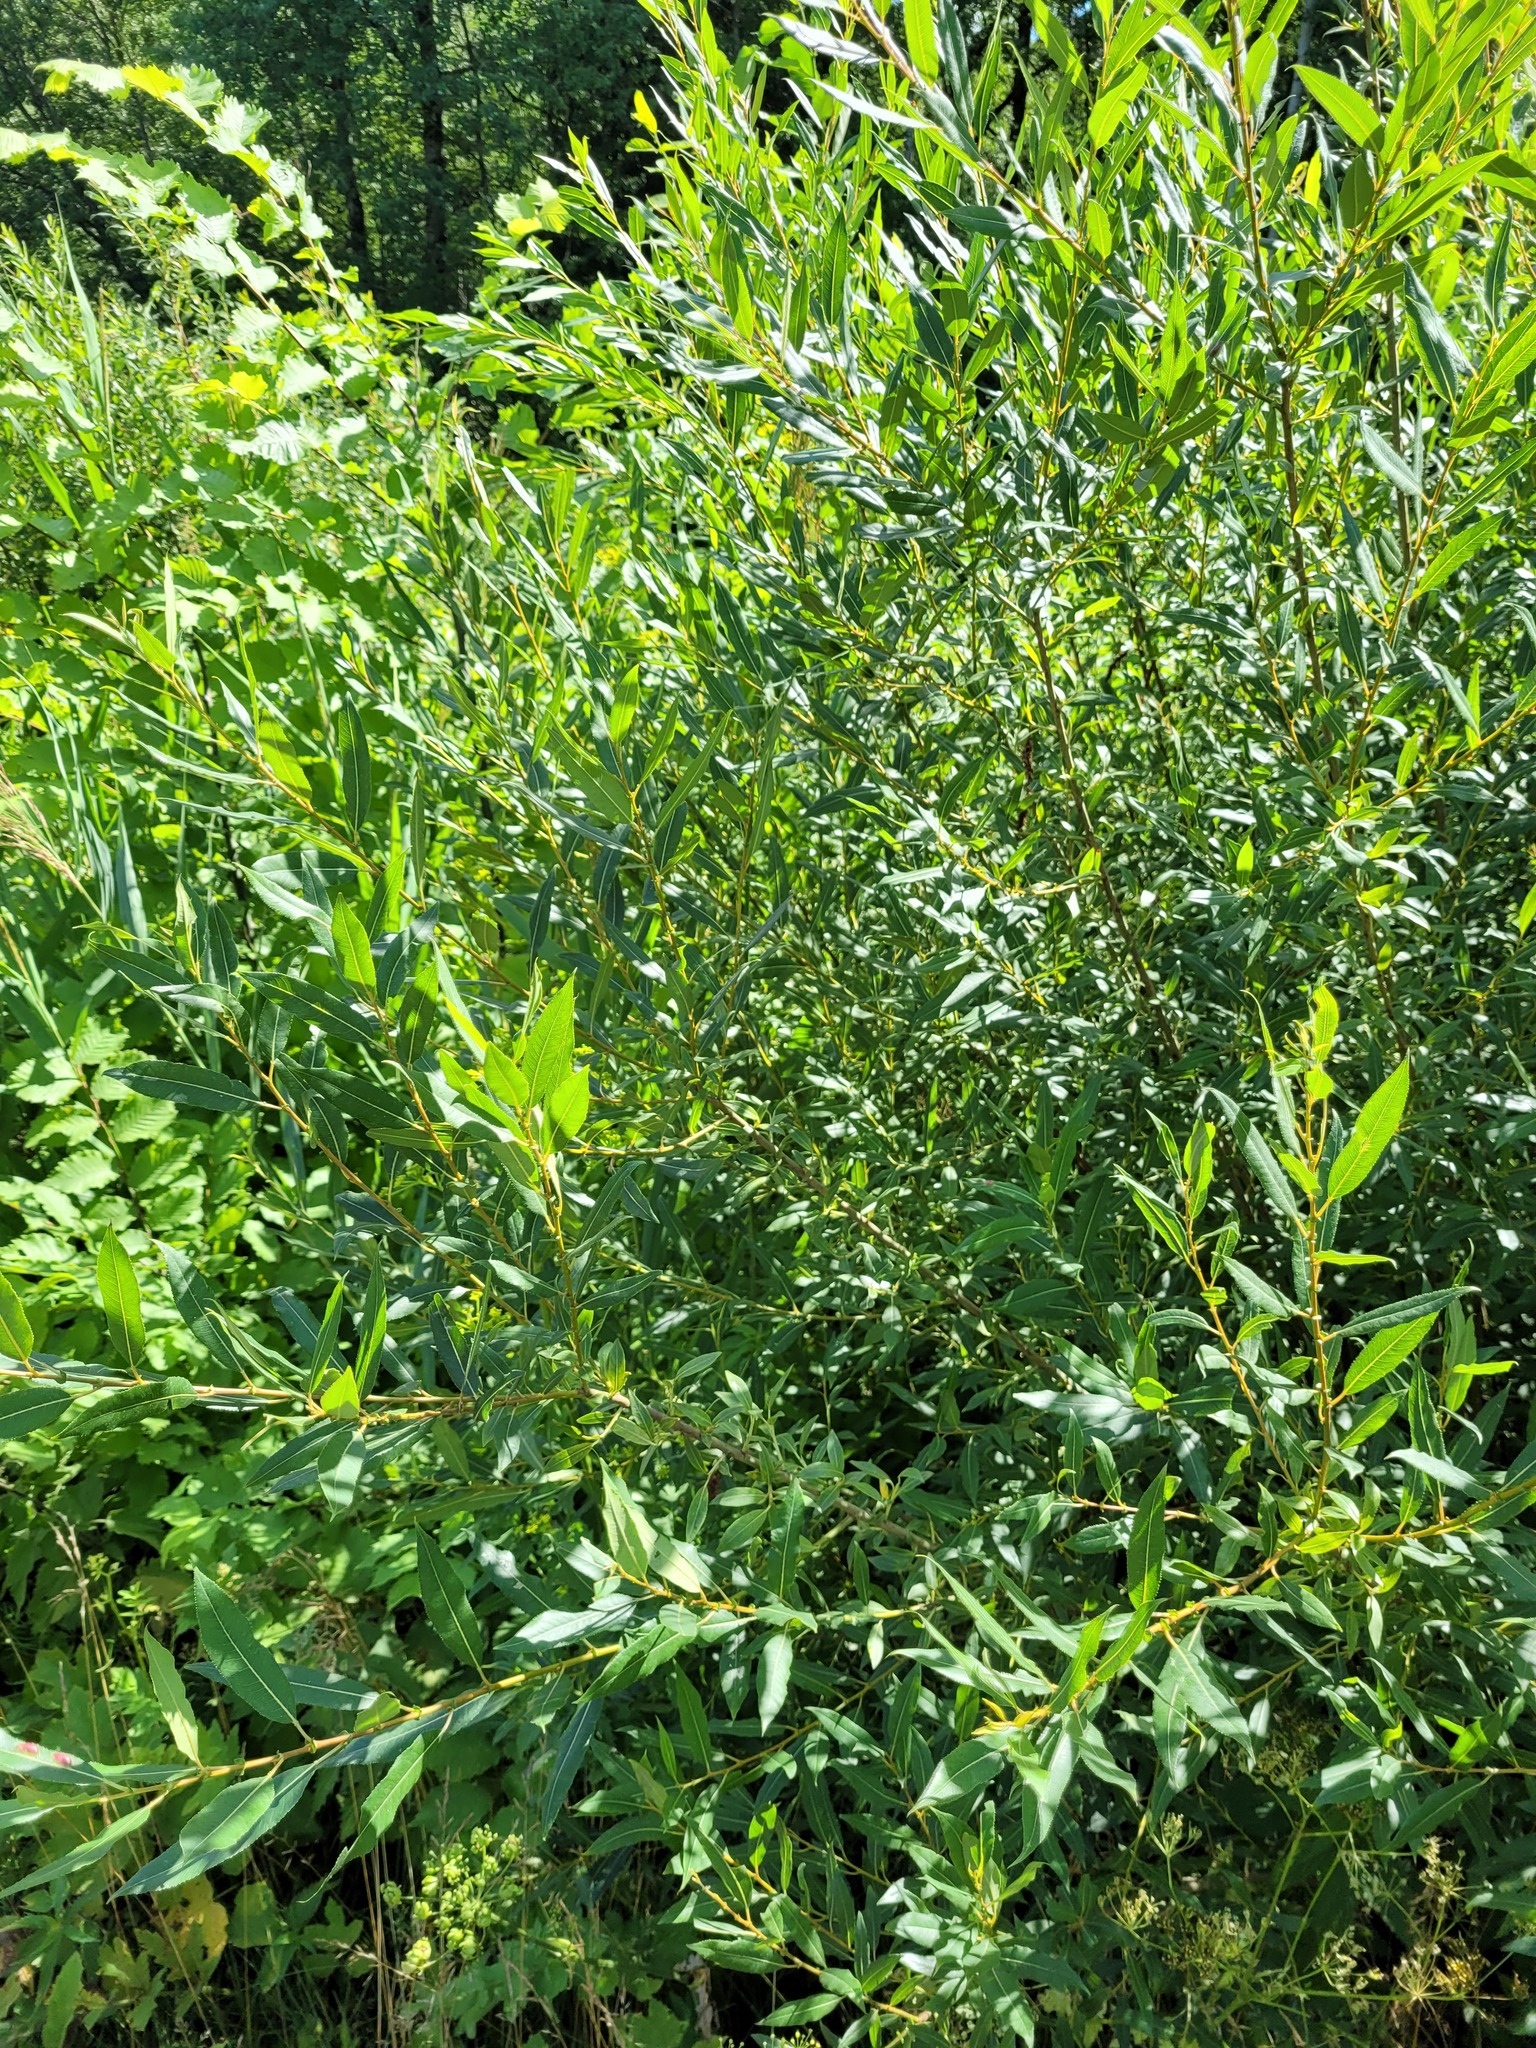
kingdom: Plantae
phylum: Tracheophyta
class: Magnoliopsida
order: Malpighiales
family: Salicaceae
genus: Salix
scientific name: Salix triandra
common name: Almond willow
